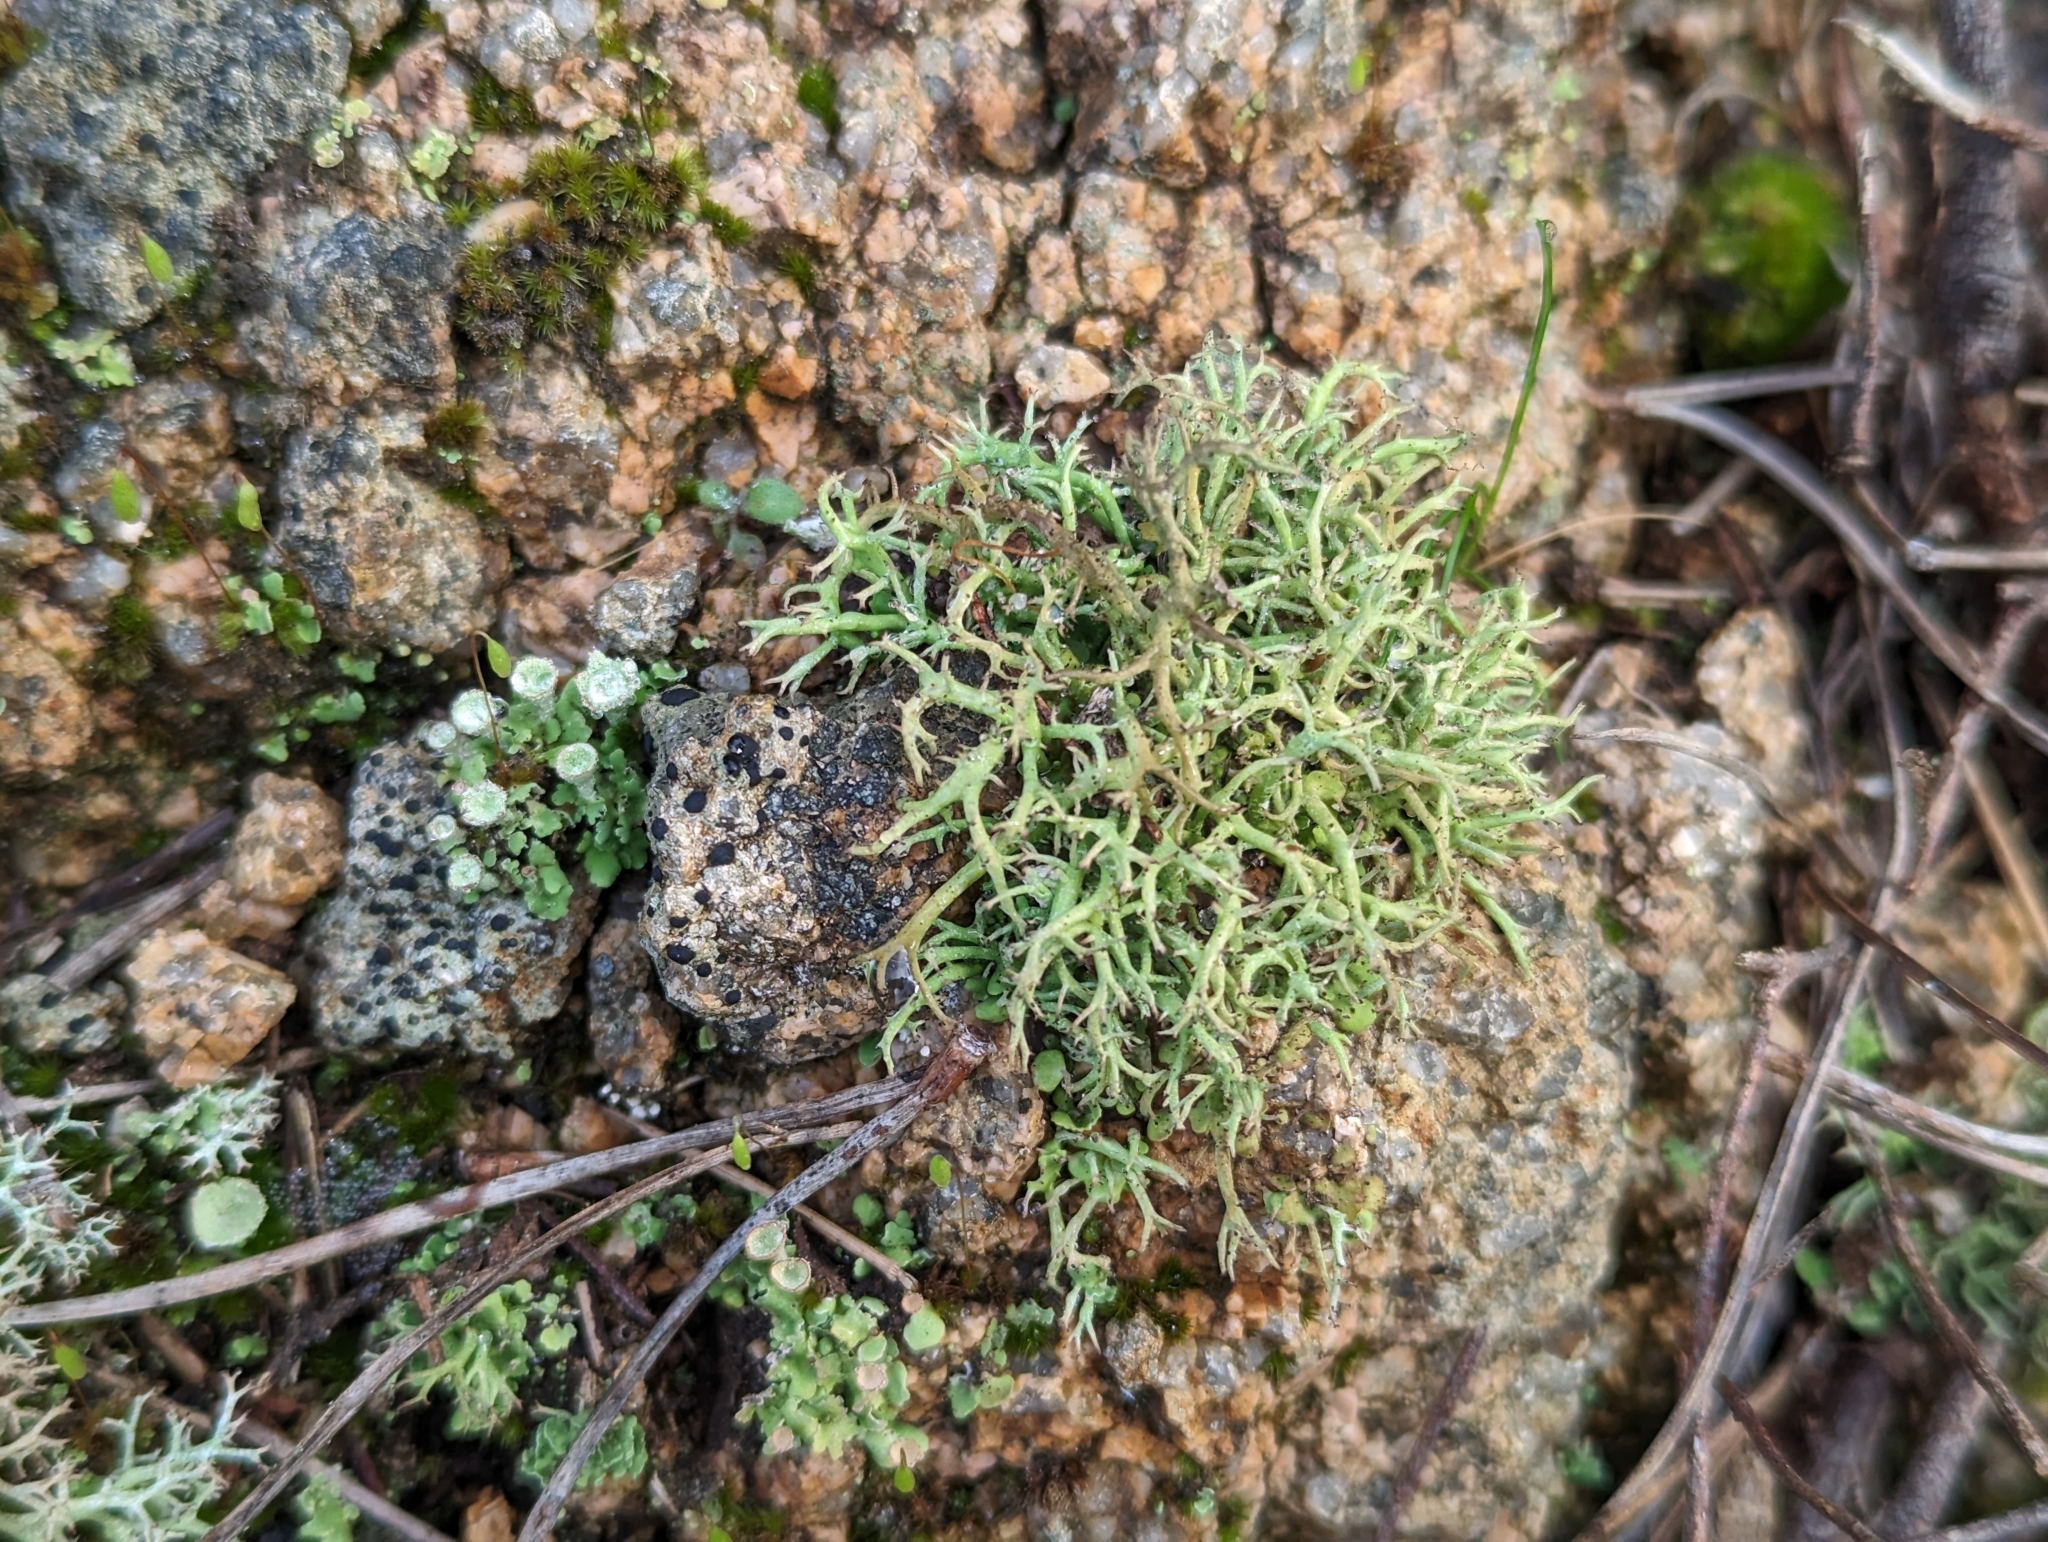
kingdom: Fungi
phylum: Ascomycota
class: Lecanoromycetes
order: Lecanorales
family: Cladoniaceae
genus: Cladonia
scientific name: Cladonia furcata
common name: Many-forked cladonia
